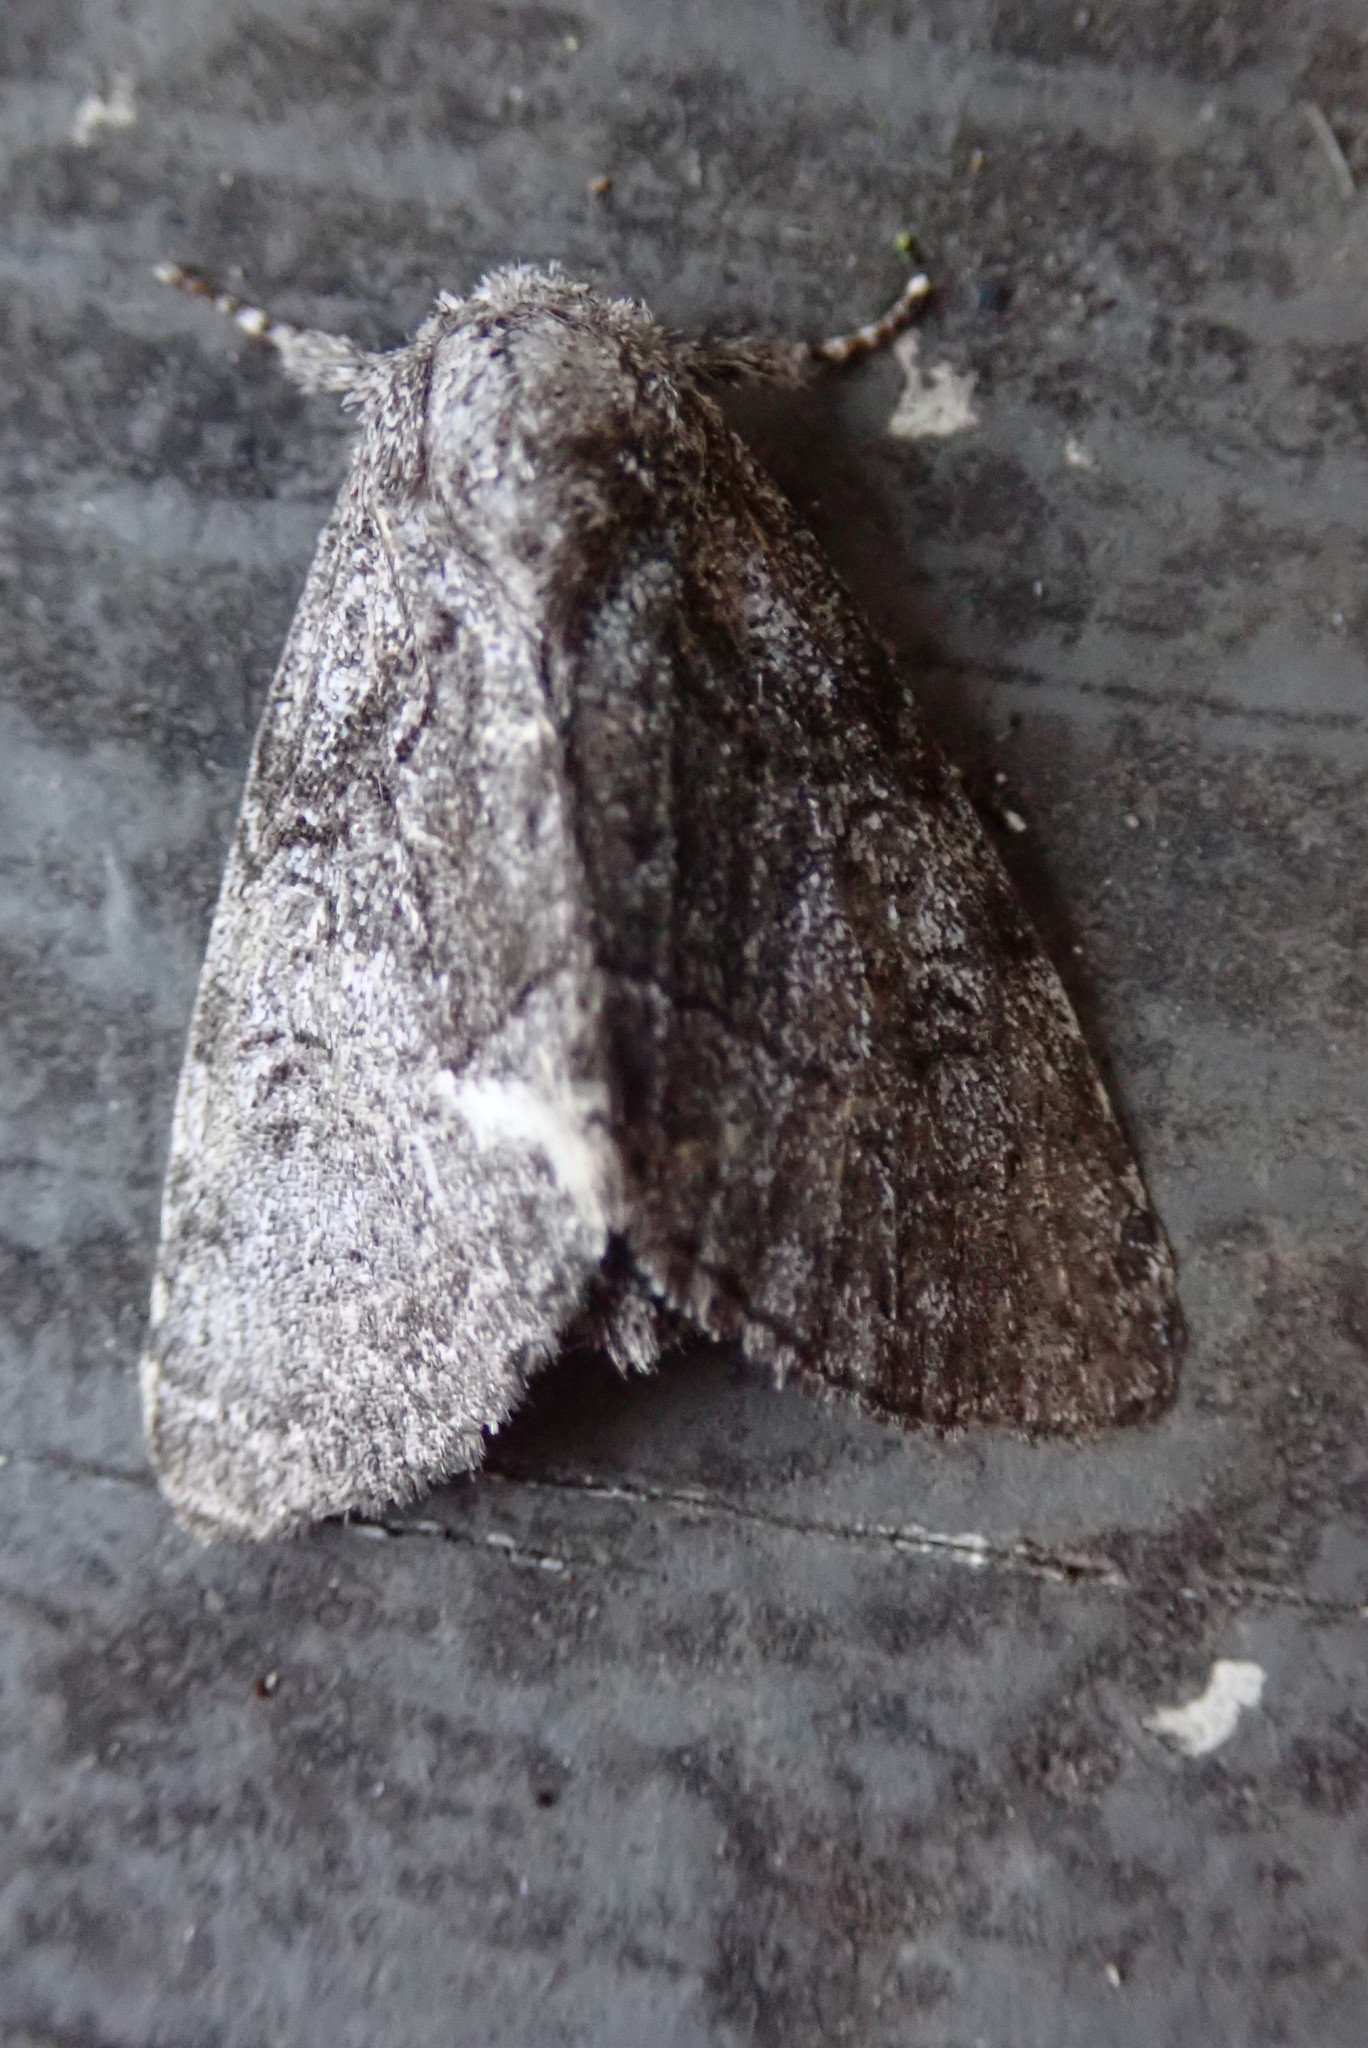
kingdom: Animalia
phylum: Arthropoda
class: Insecta
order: Lepidoptera
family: Noctuidae
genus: Raphia
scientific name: Raphia frater
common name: Brother
